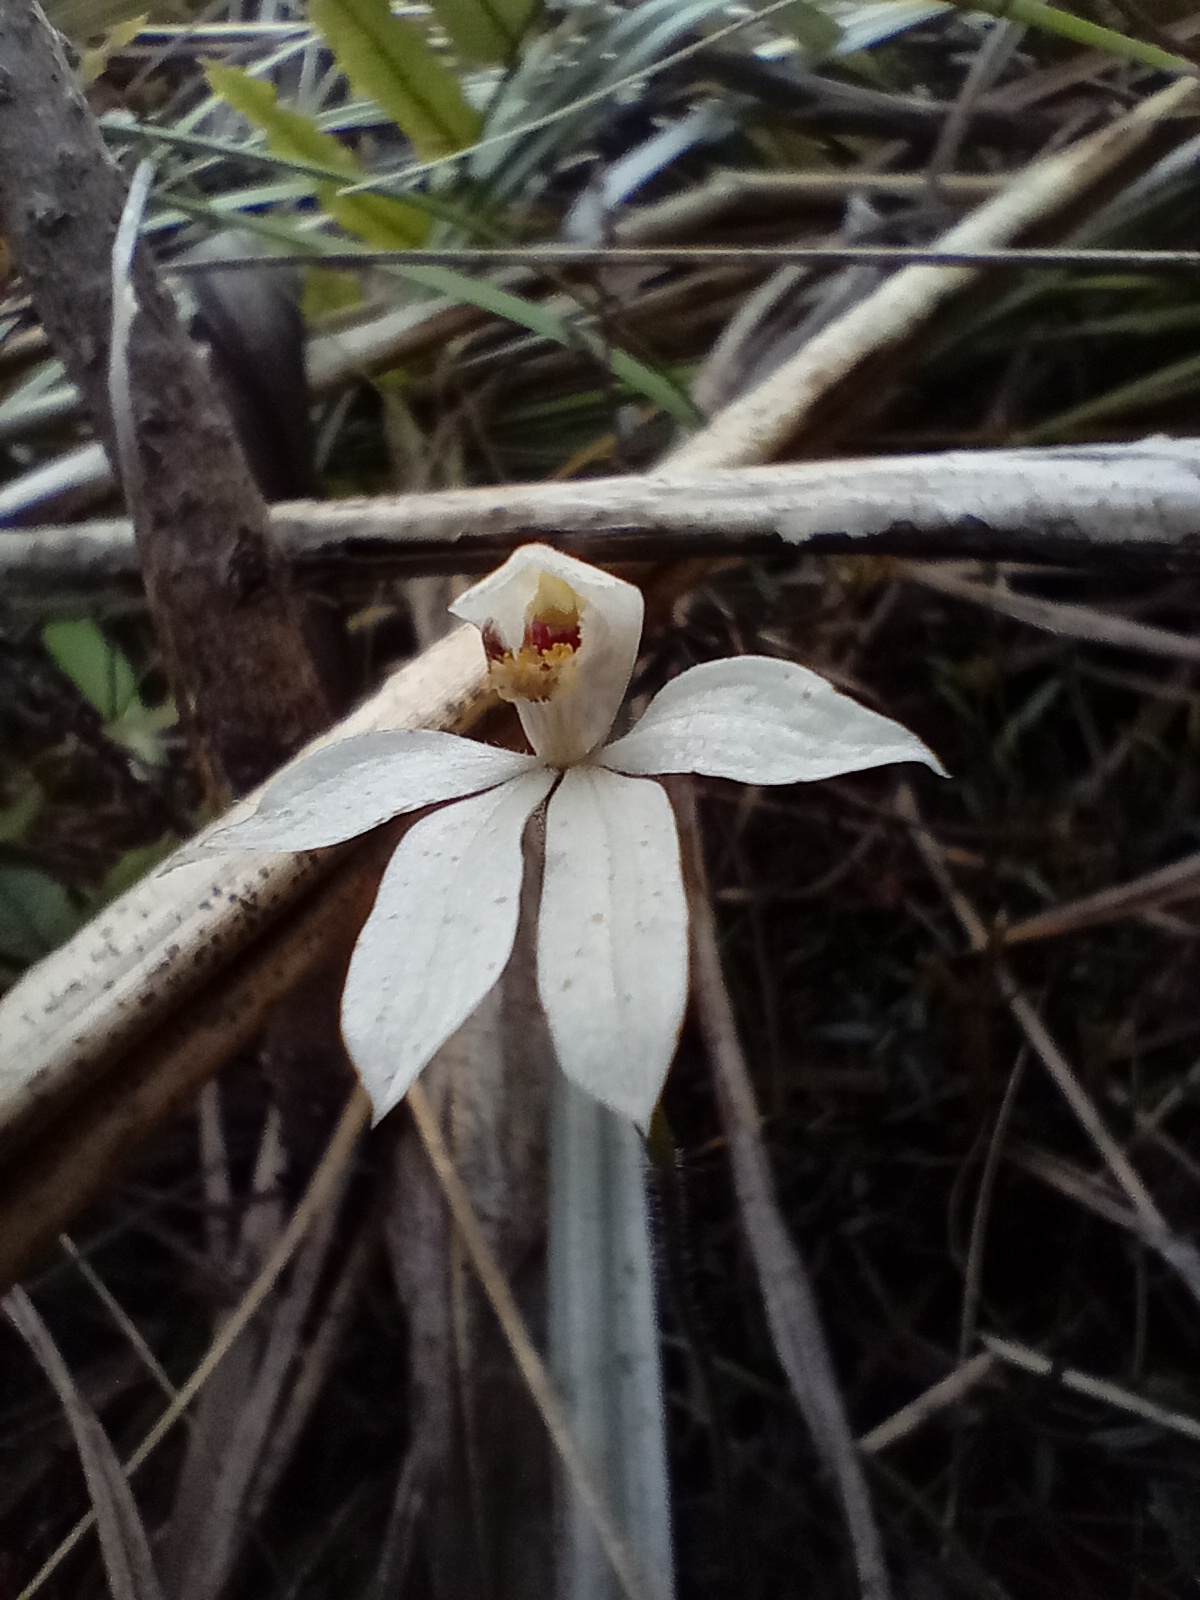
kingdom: Plantae
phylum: Tracheophyta
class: Liliopsida
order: Asparagales
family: Orchidaceae
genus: Caladenia
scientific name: Caladenia lyallii
